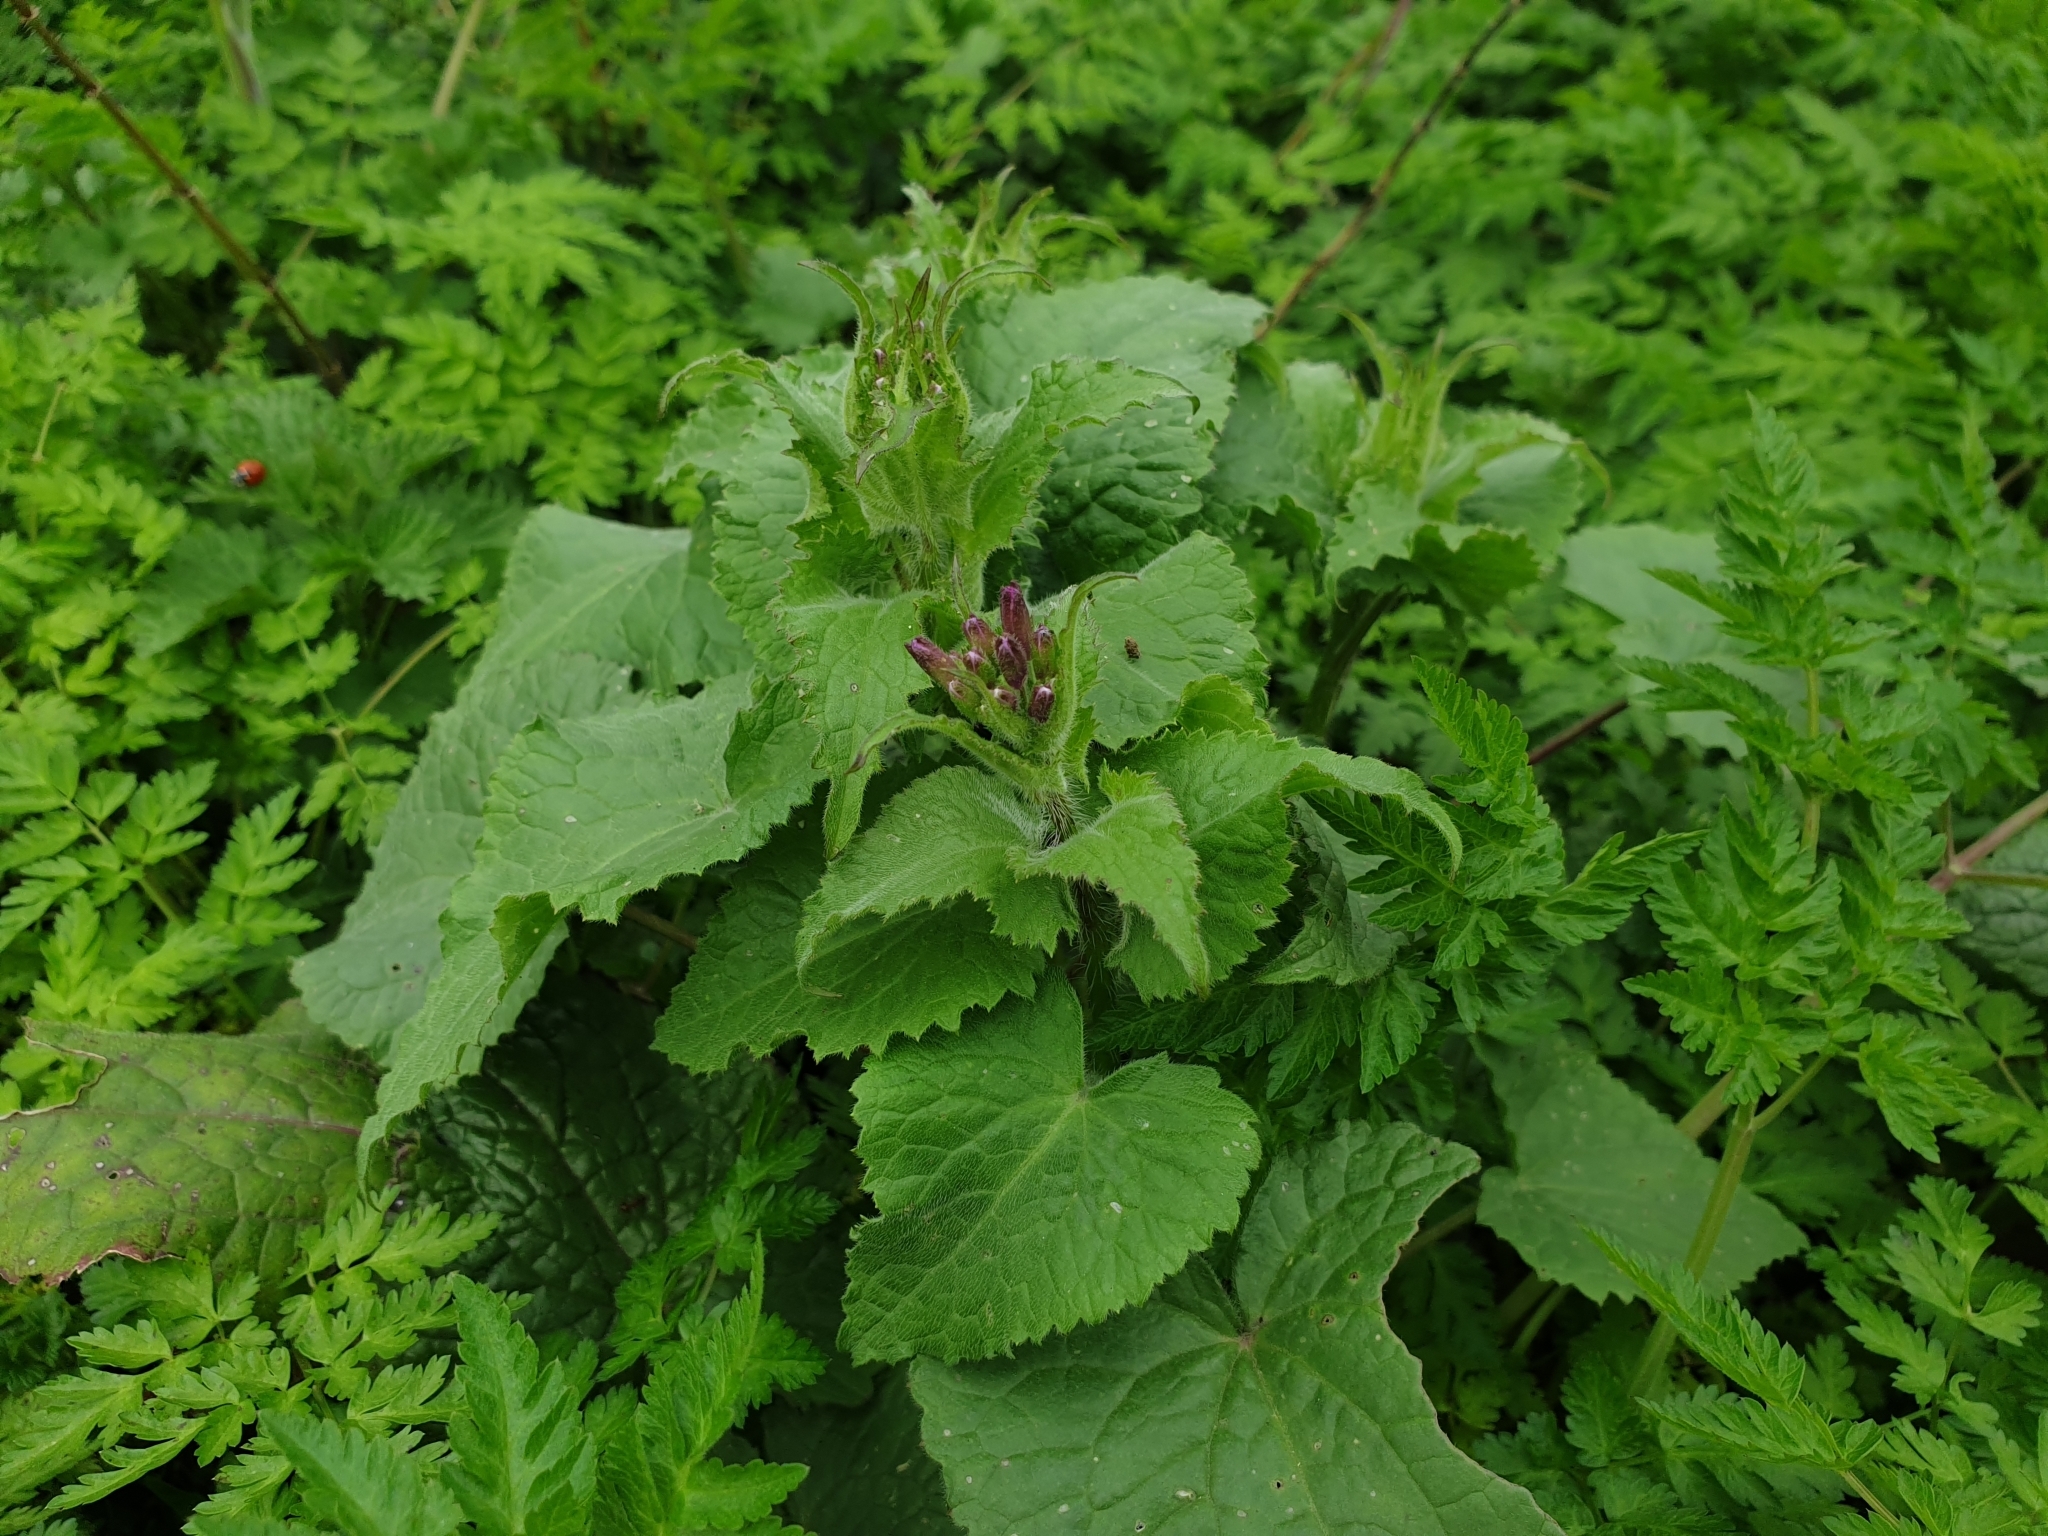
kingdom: Plantae
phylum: Tracheophyta
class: Magnoliopsida
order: Brassicales
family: Brassicaceae
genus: Lunaria
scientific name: Lunaria annua
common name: Honesty
